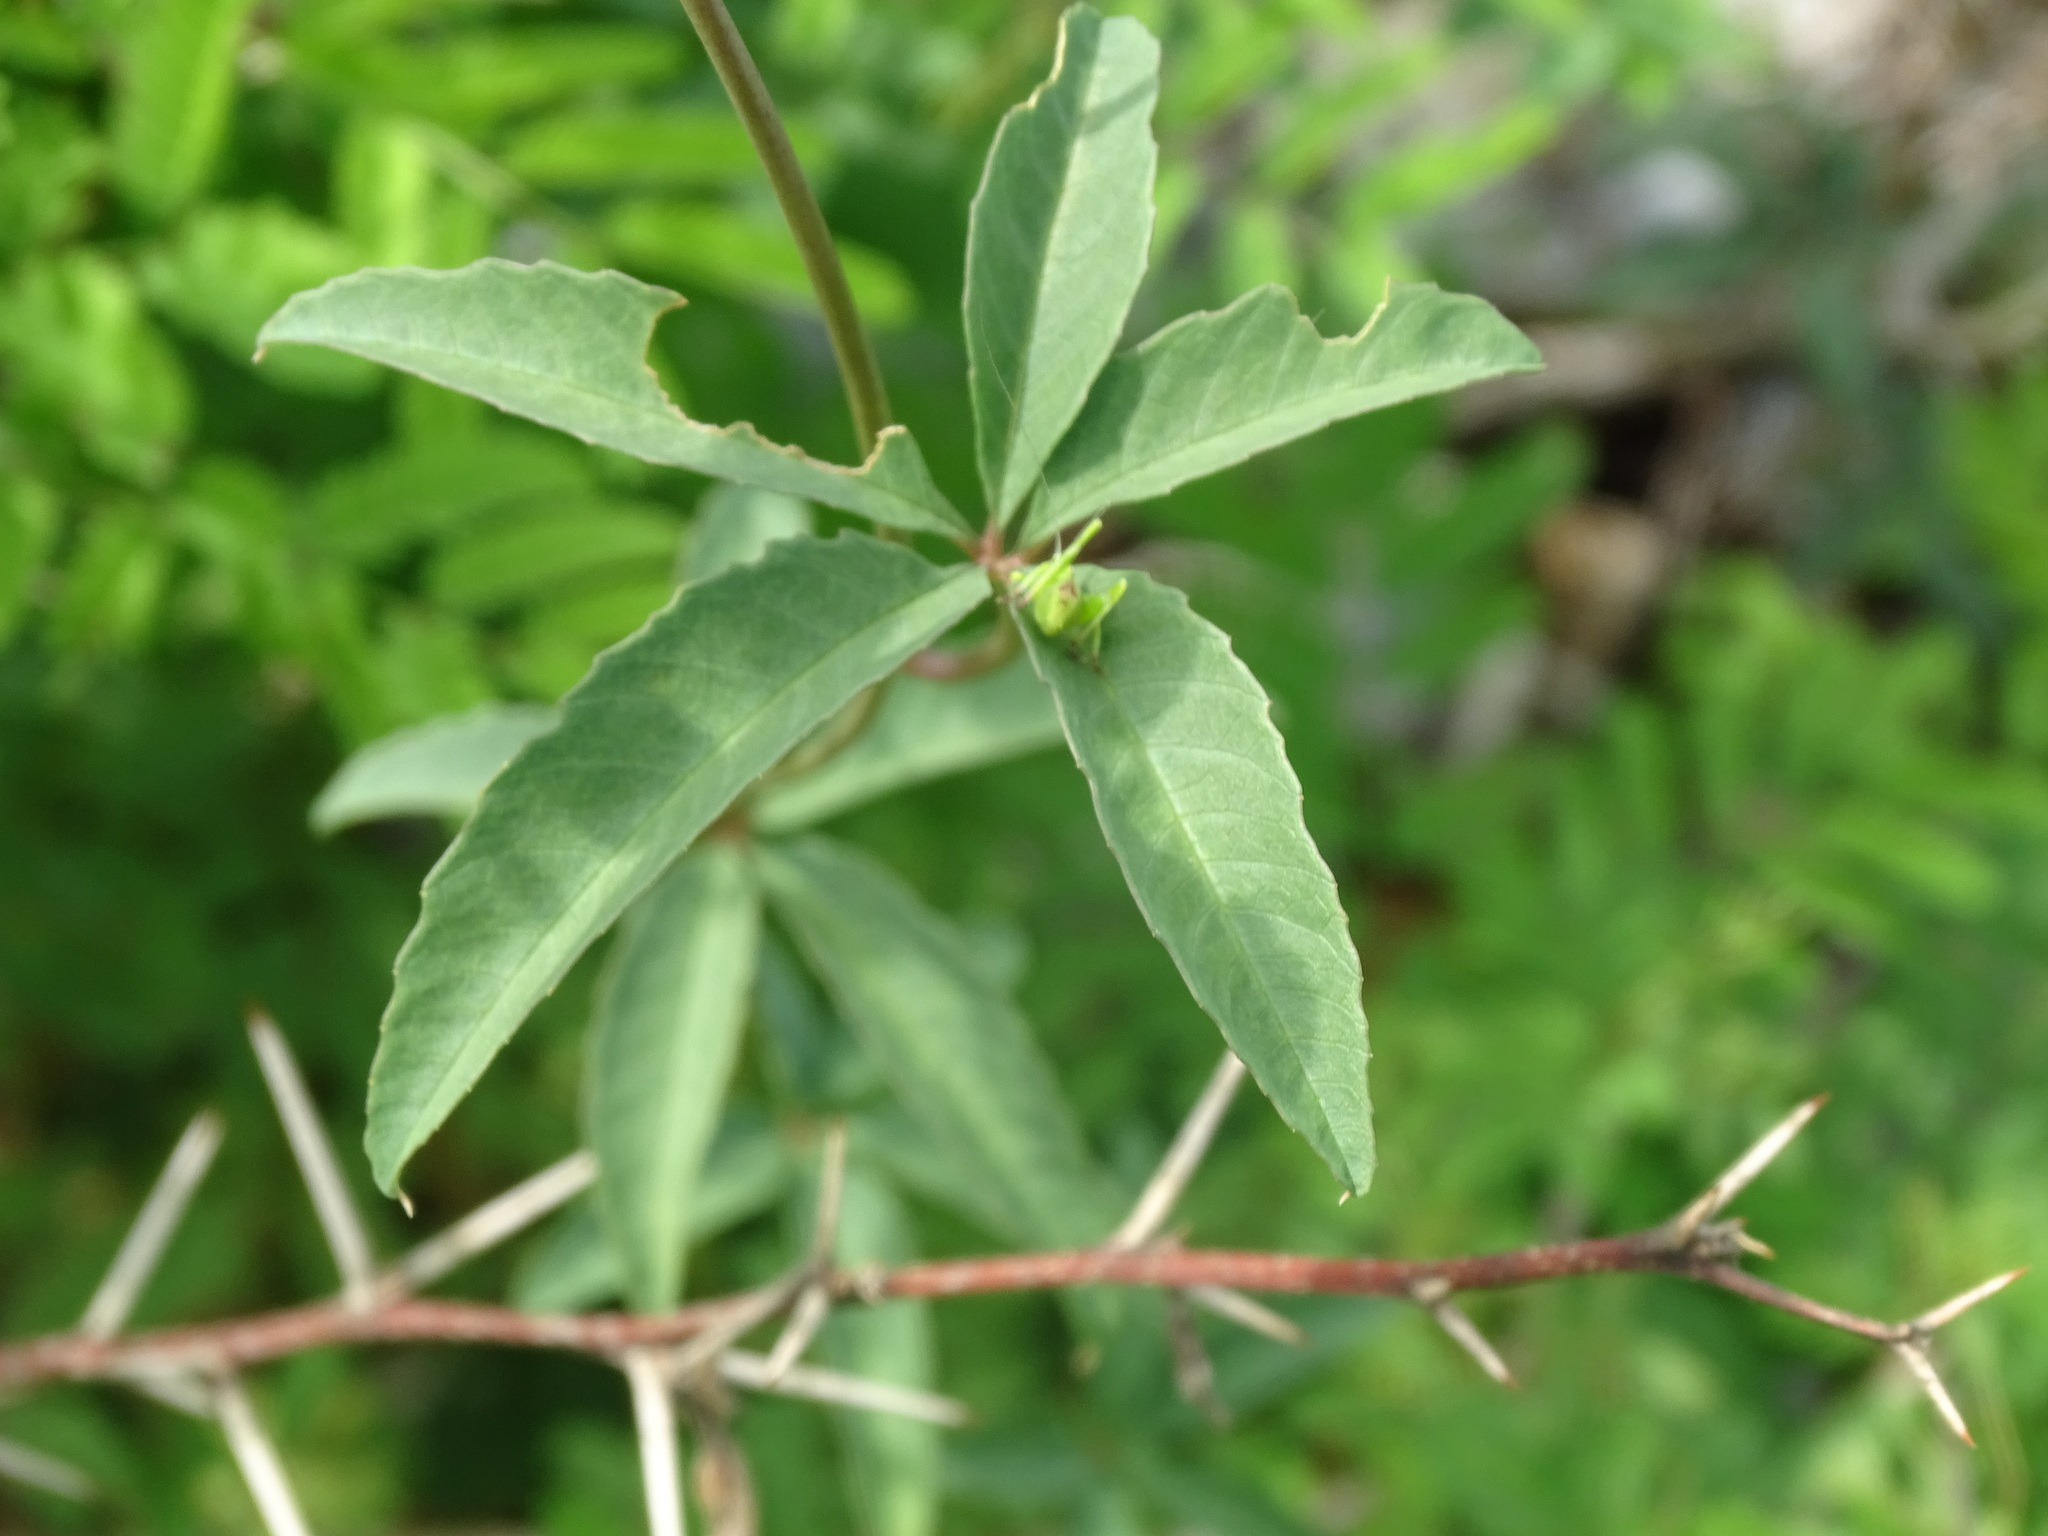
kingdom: Plantae
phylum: Tracheophyta
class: Magnoliopsida
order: Solanales
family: Convolvulaceae
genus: Distimake
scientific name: Distimake quinquefolius
